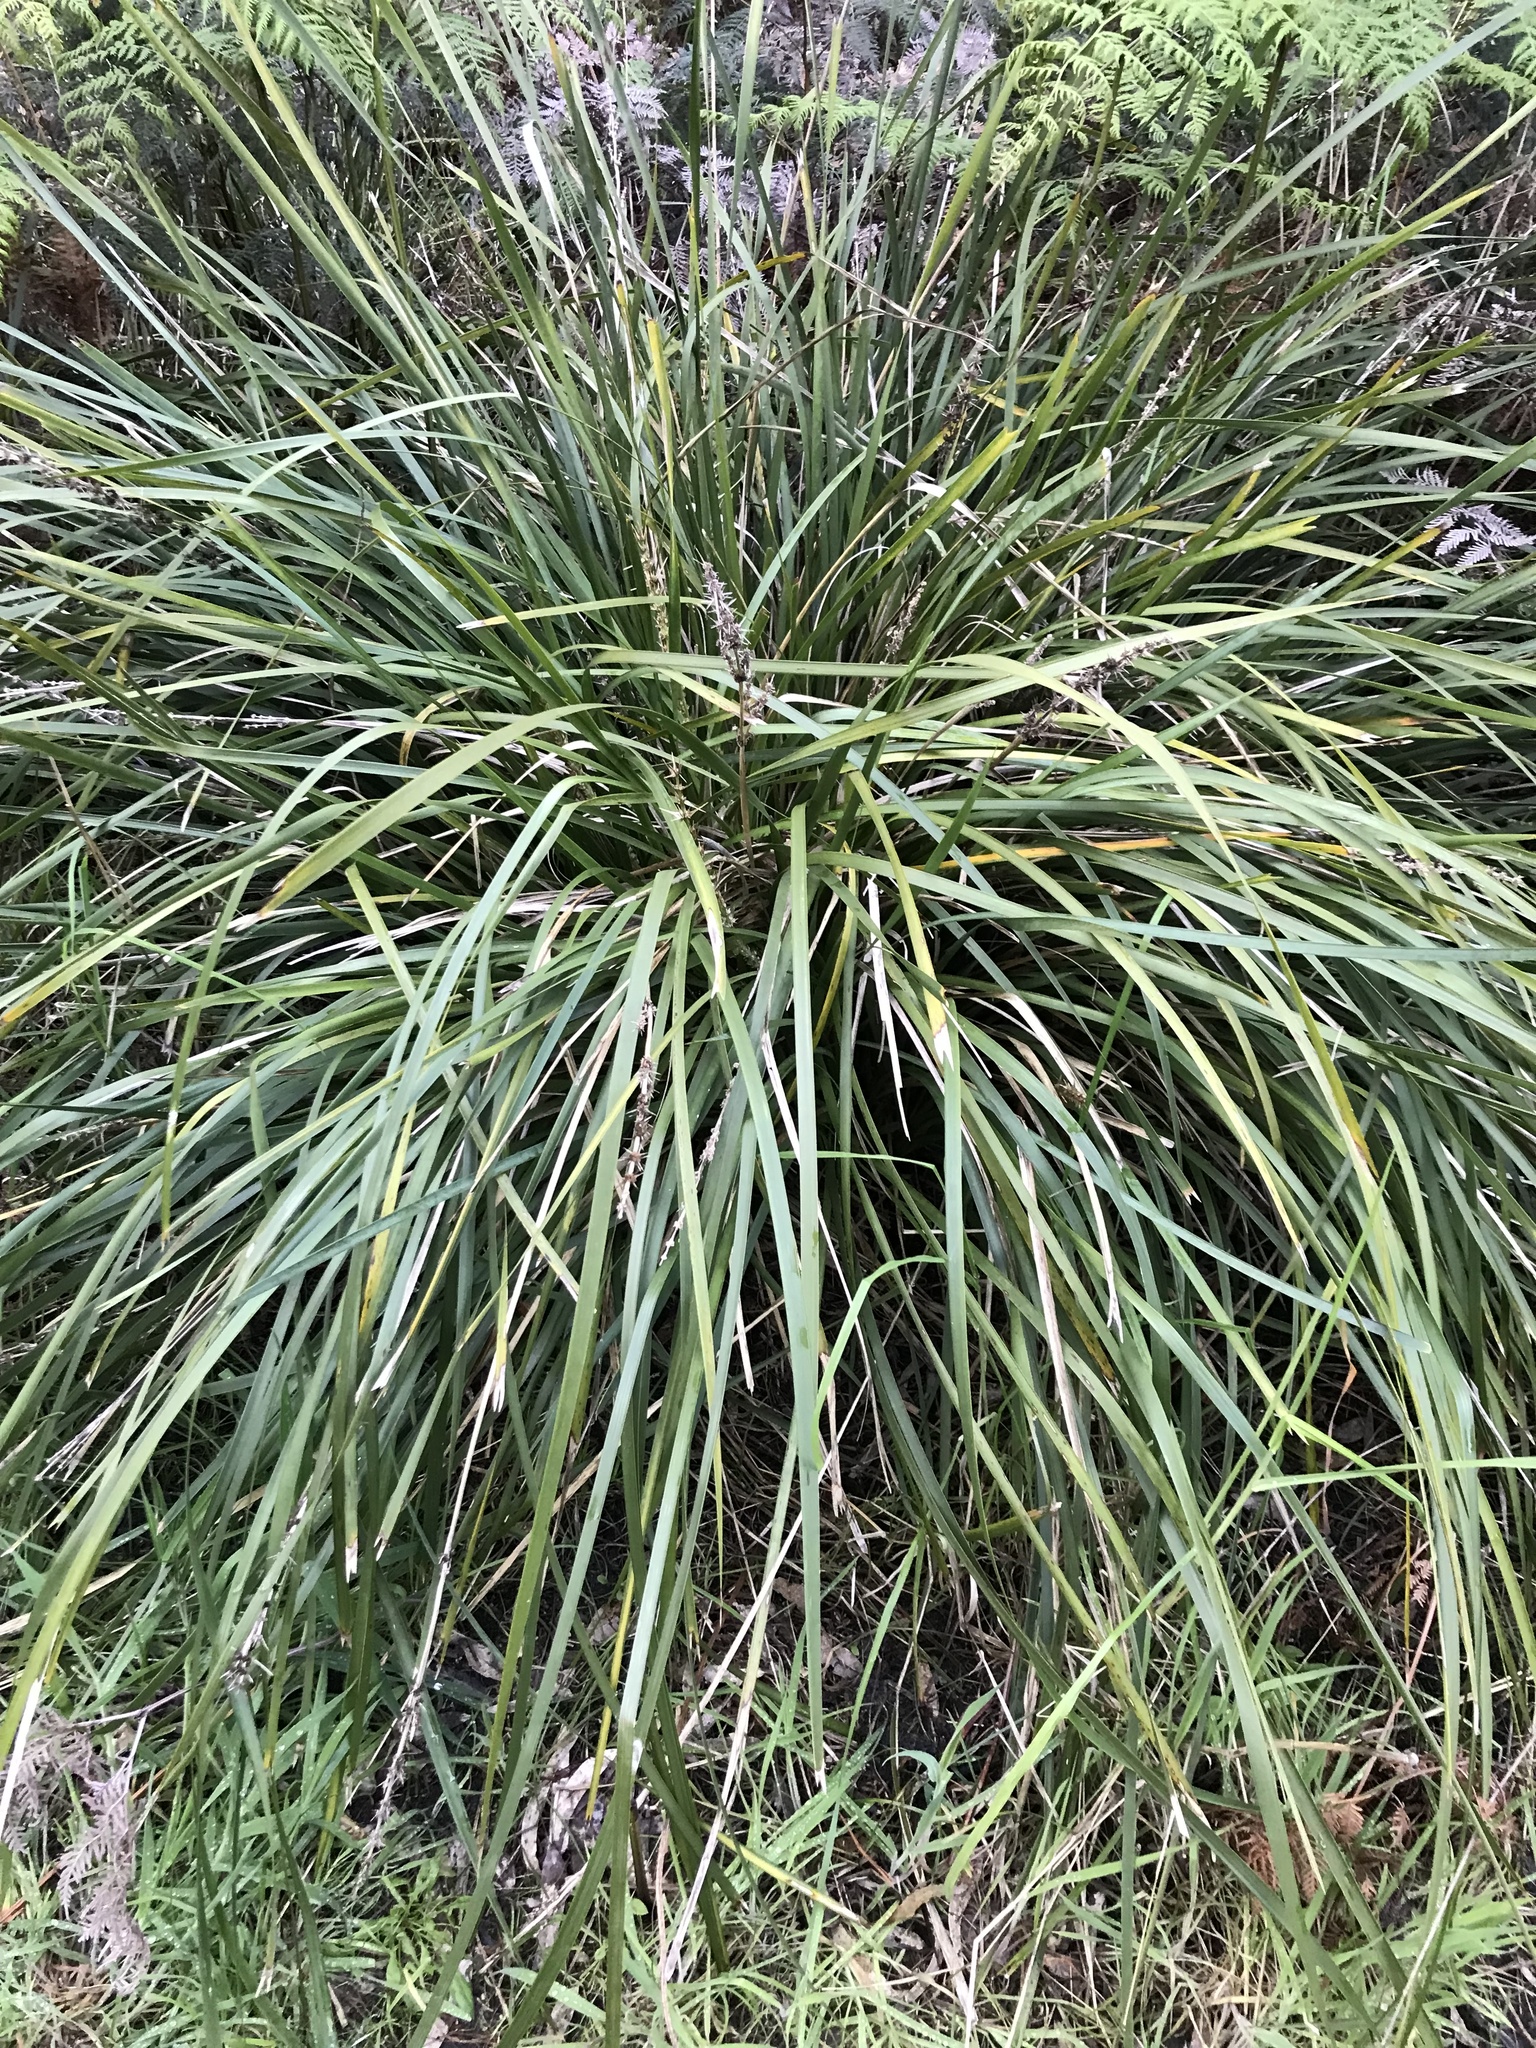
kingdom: Plantae
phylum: Tracheophyta
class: Liliopsida
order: Asparagales
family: Asparagaceae
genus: Lomandra
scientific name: Lomandra longifolia
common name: Longleaf mat-rush
